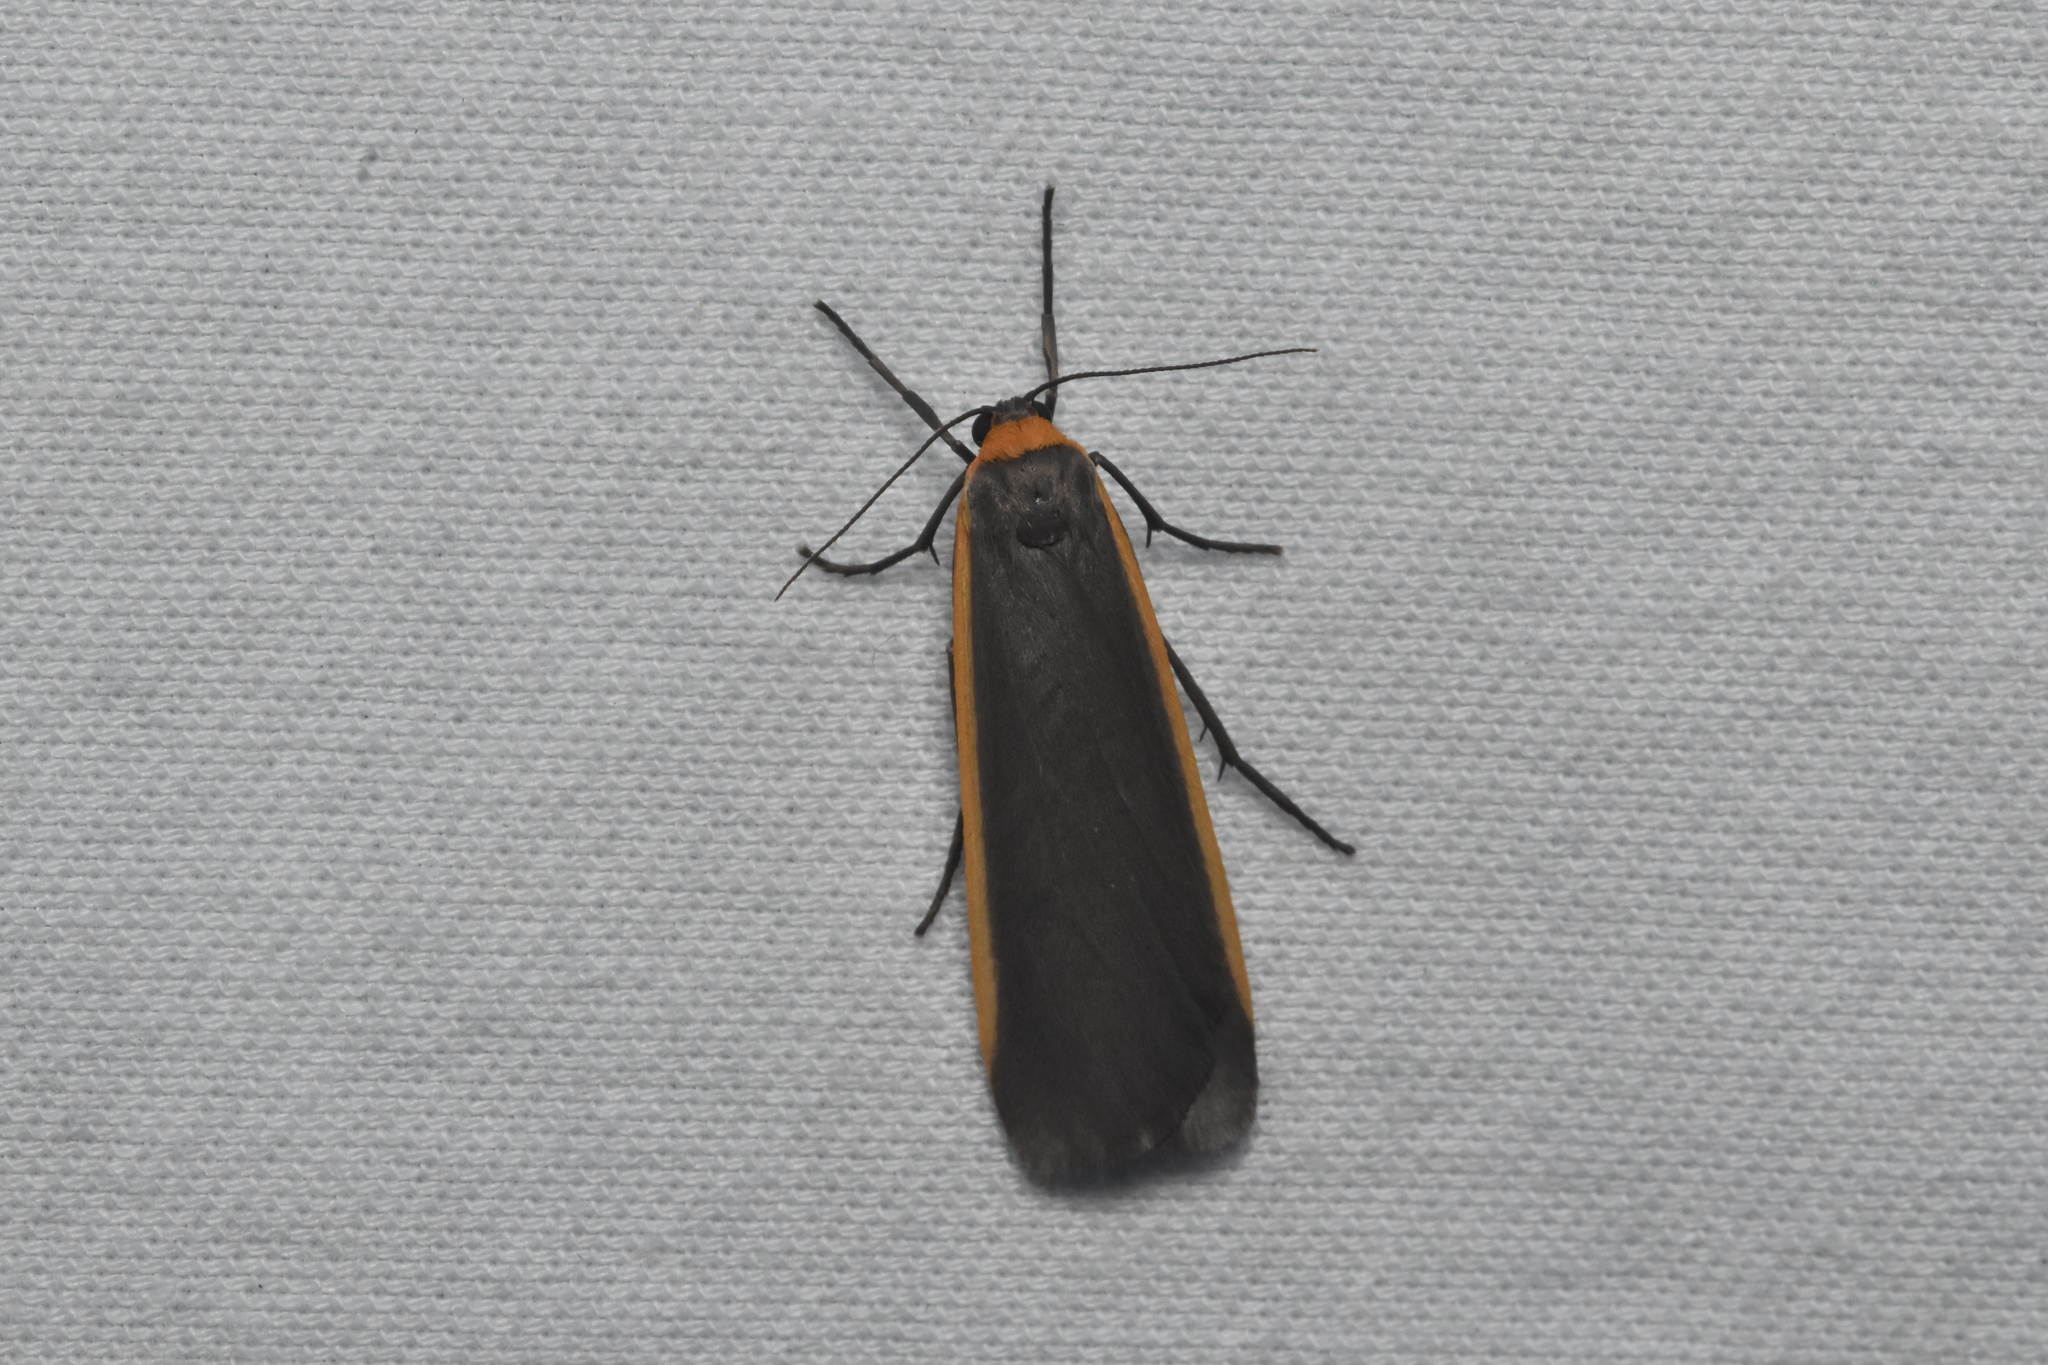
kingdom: Animalia
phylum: Arthropoda
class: Insecta
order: Lepidoptera
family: Erebidae
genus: Manulea
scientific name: Manulea bicolor
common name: Bicolored moth
